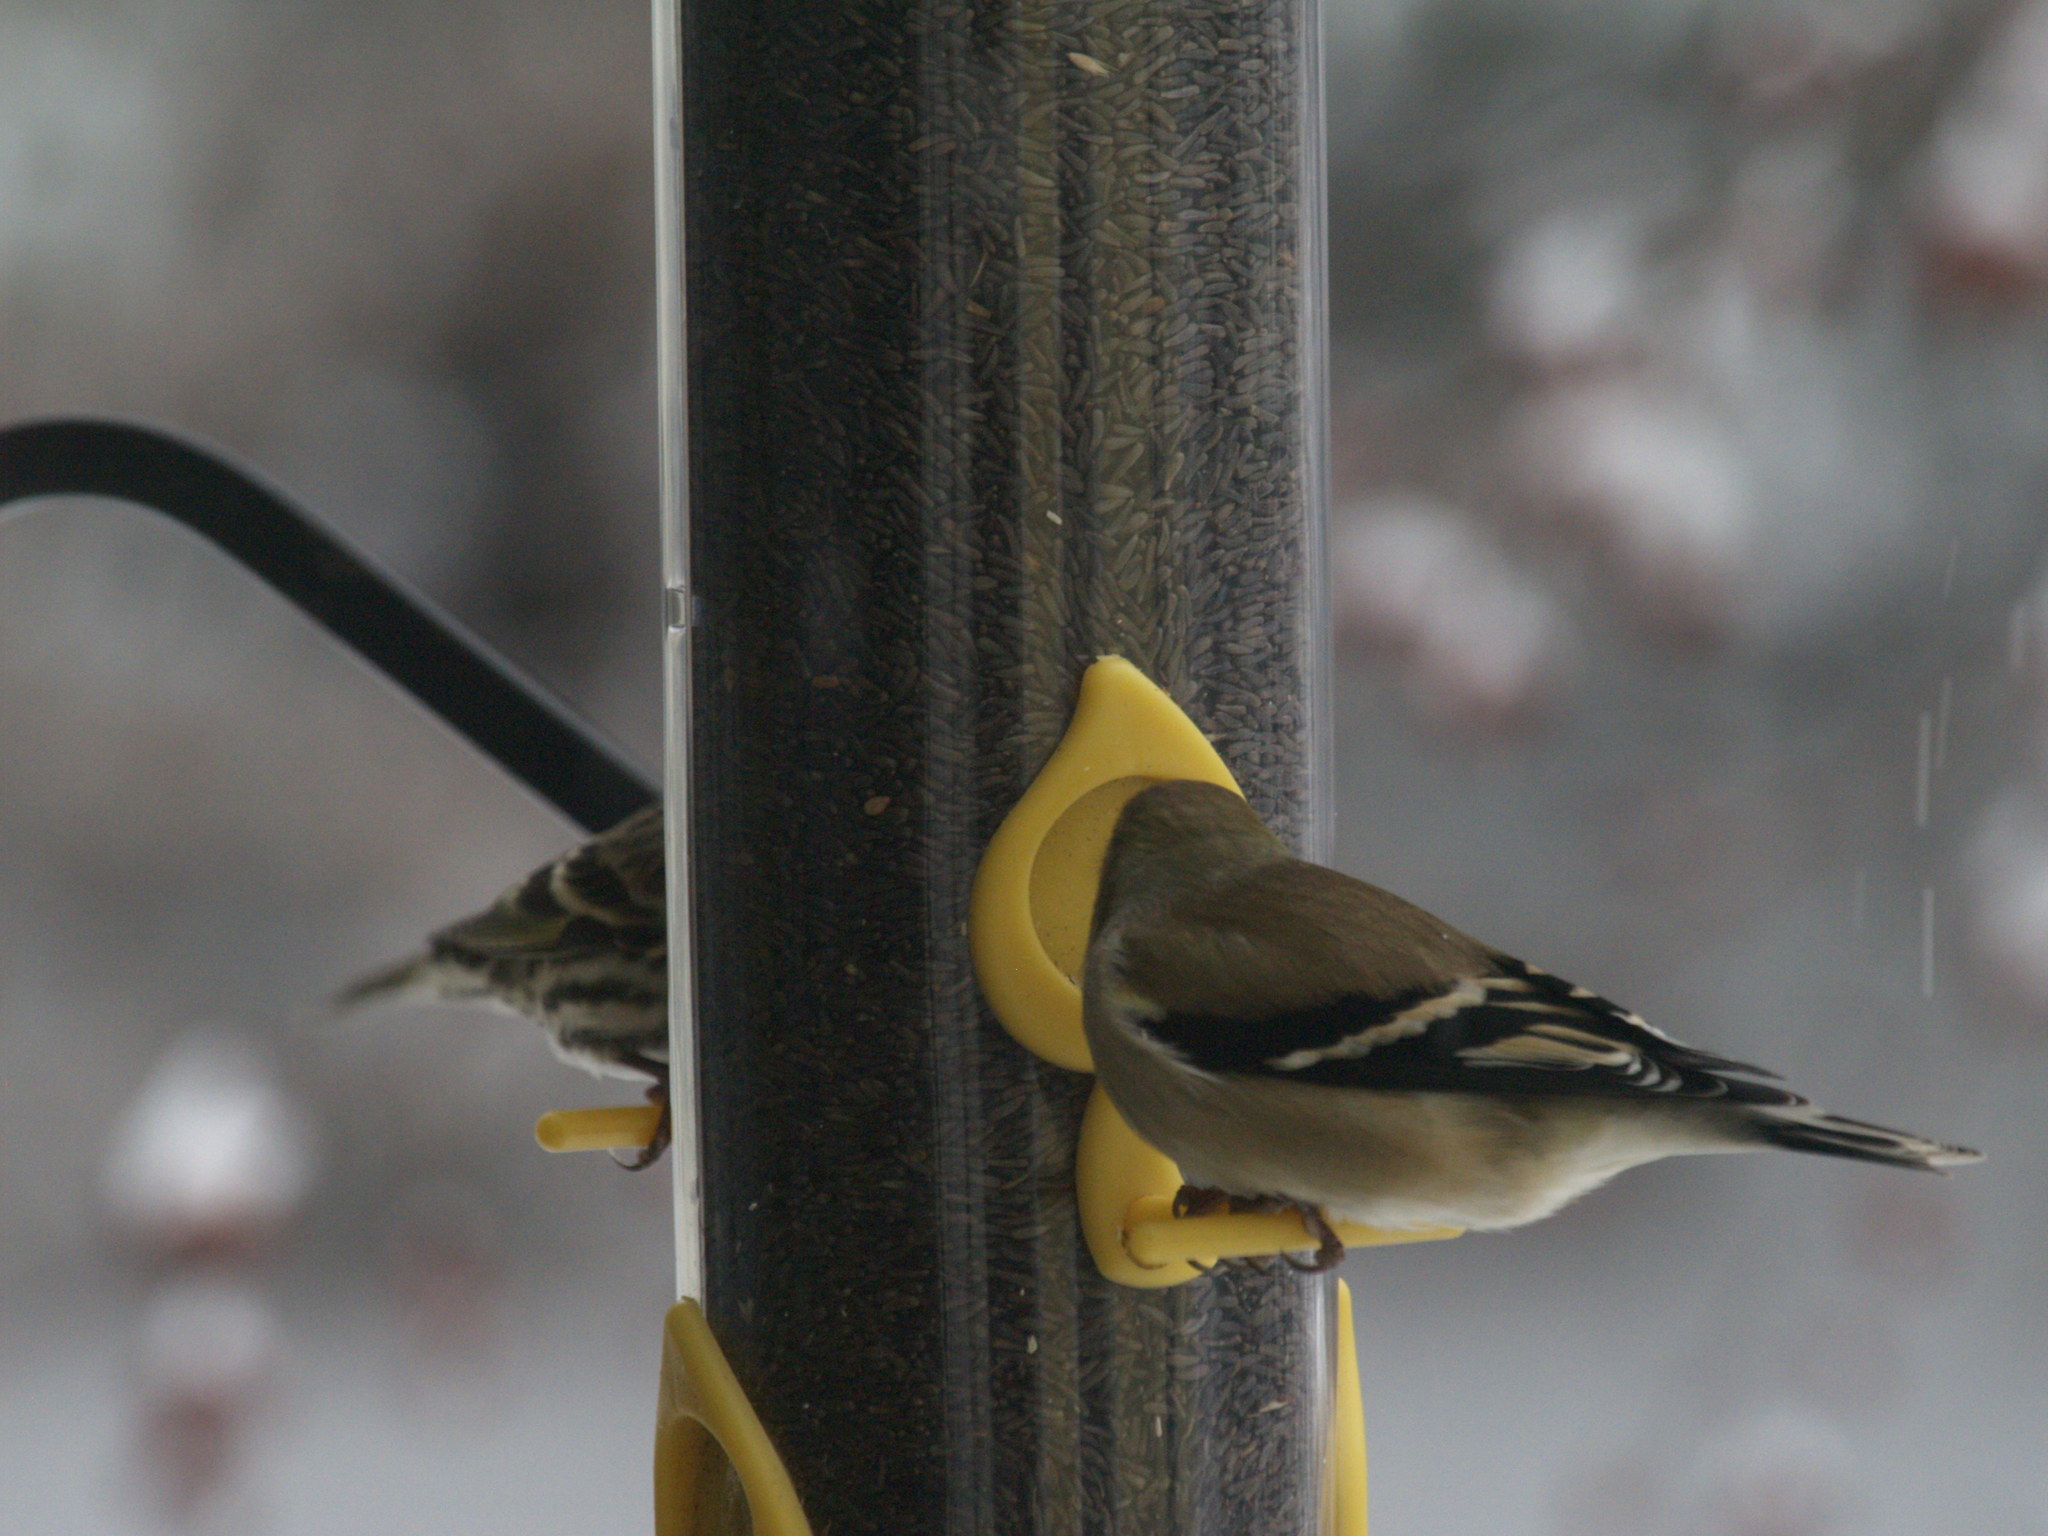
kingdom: Animalia
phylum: Chordata
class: Aves
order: Passeriformes
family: Fringillidae
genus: Spinus
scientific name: Spinus tristis
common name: American goldfinch
